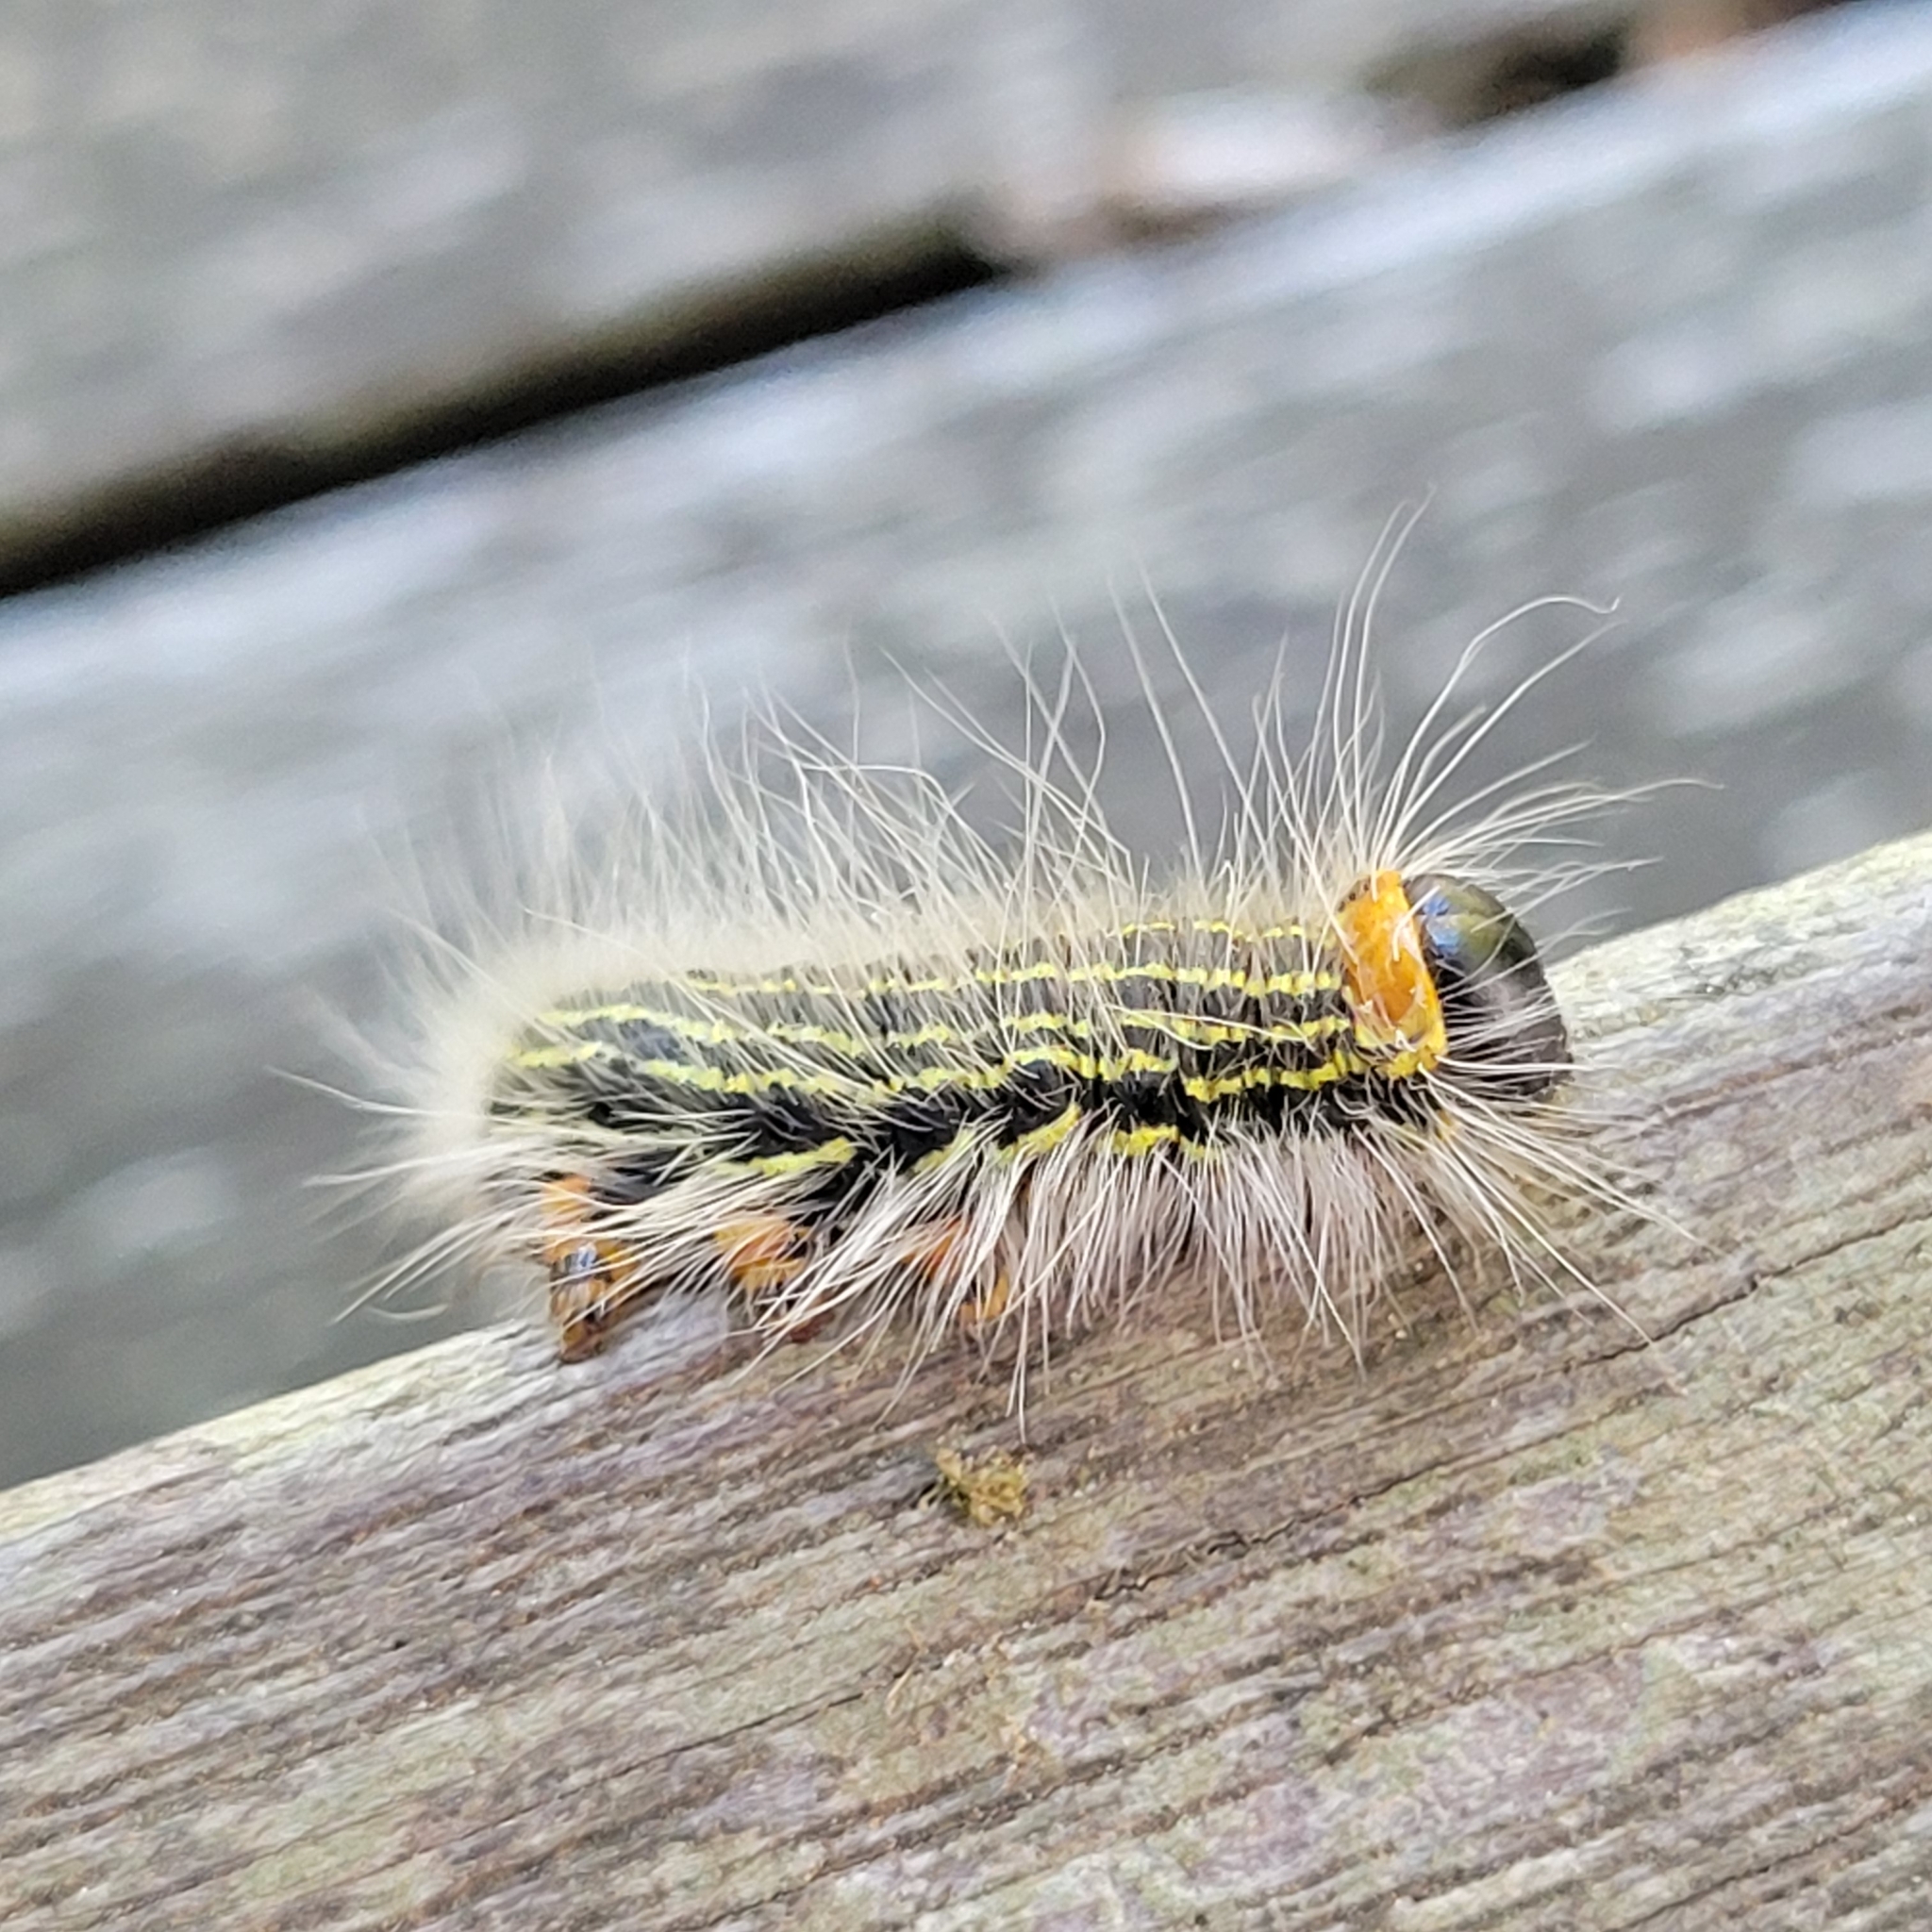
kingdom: Animalia
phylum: Arthropoda
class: Insecta
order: Lepidoptera
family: Notodontidae
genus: Datana
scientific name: Datana ministra
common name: Yellow-necked caterpillar moth
